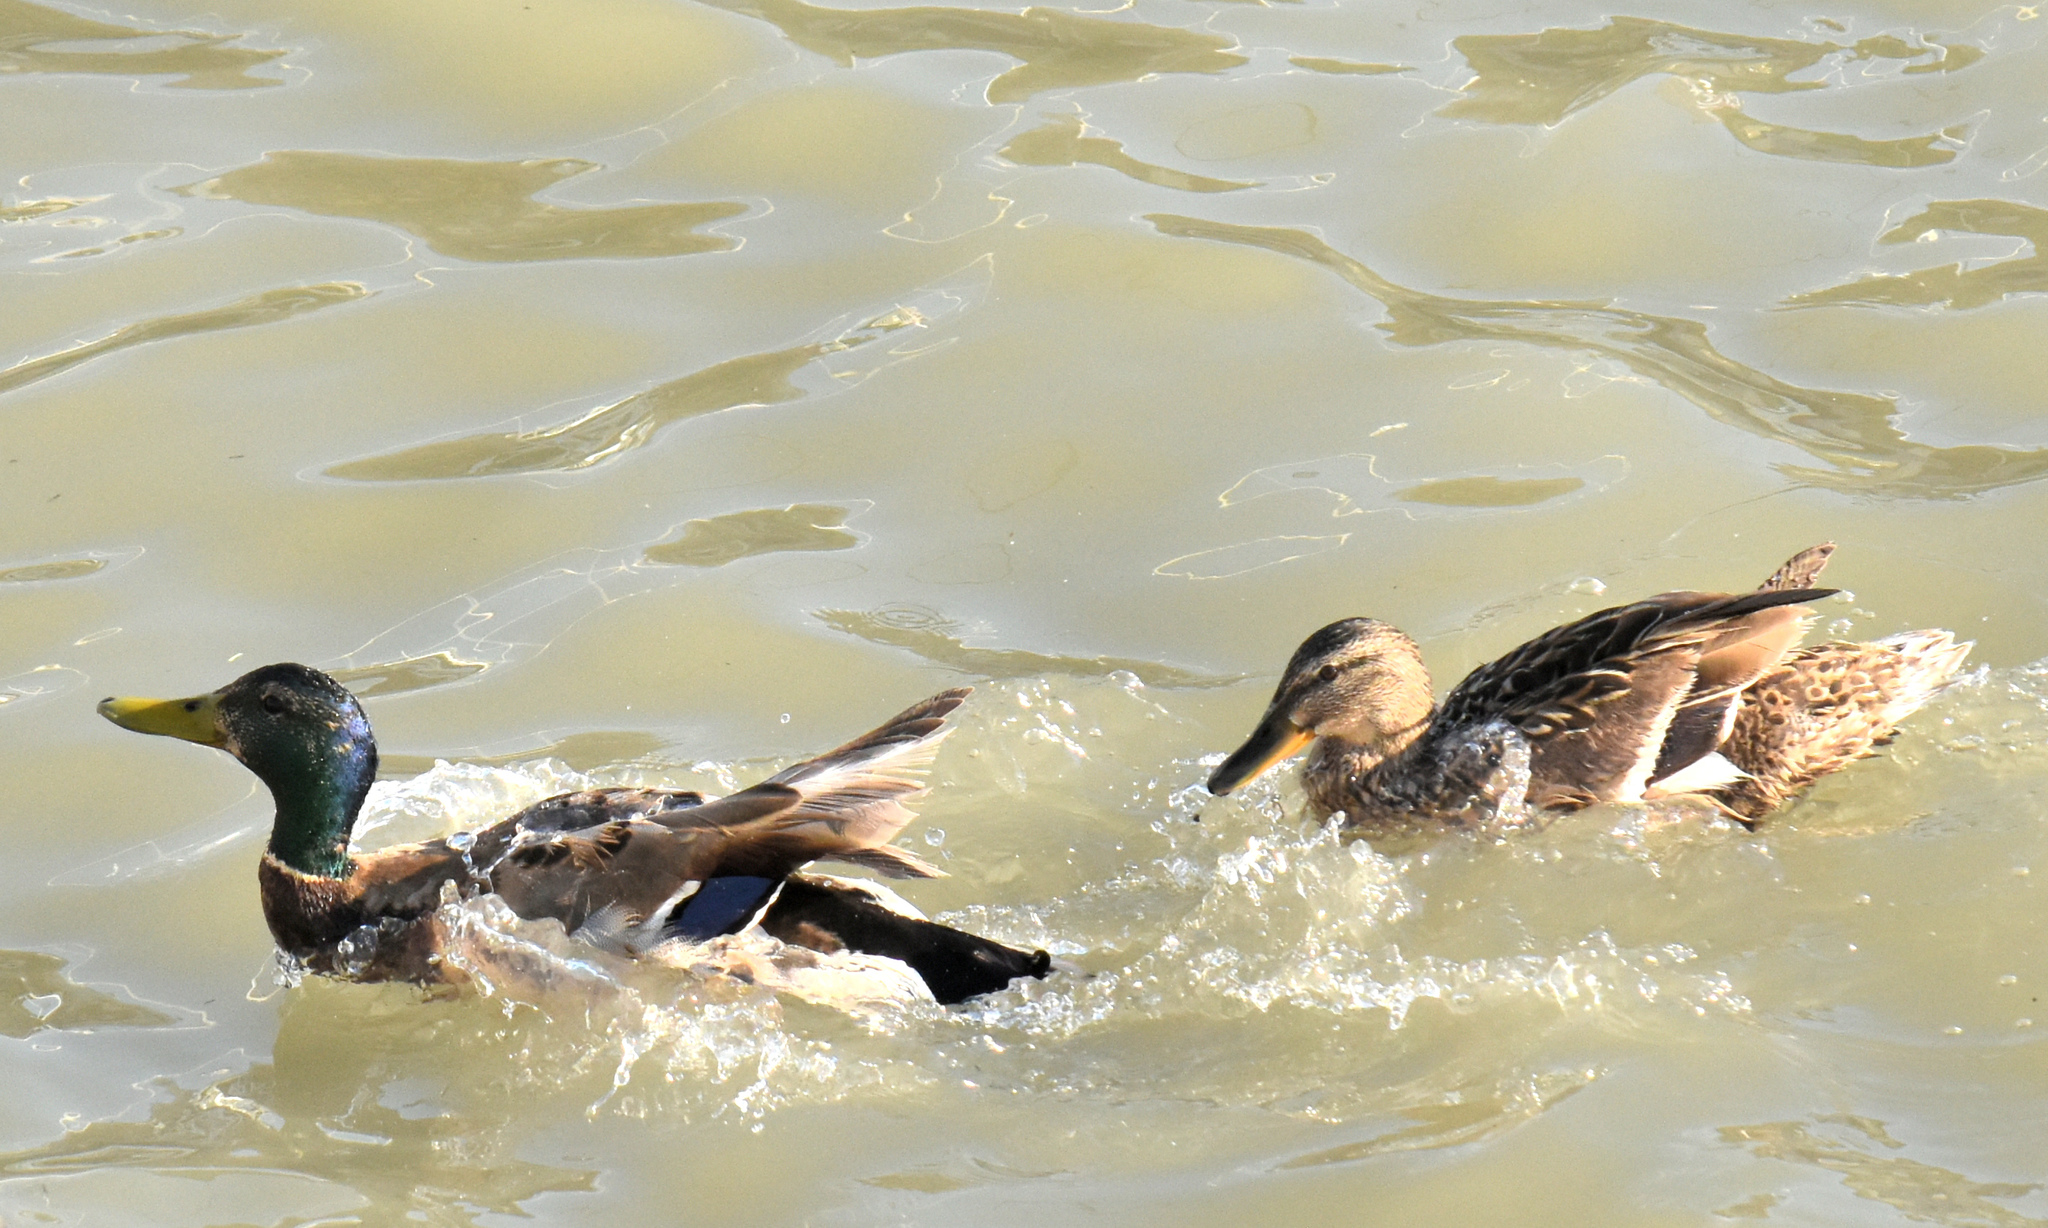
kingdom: Animalia
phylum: Chordata
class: Aves
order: Anseriformes
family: Anatidae
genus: Anas
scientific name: Anas platyrhynchos
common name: Mallard
